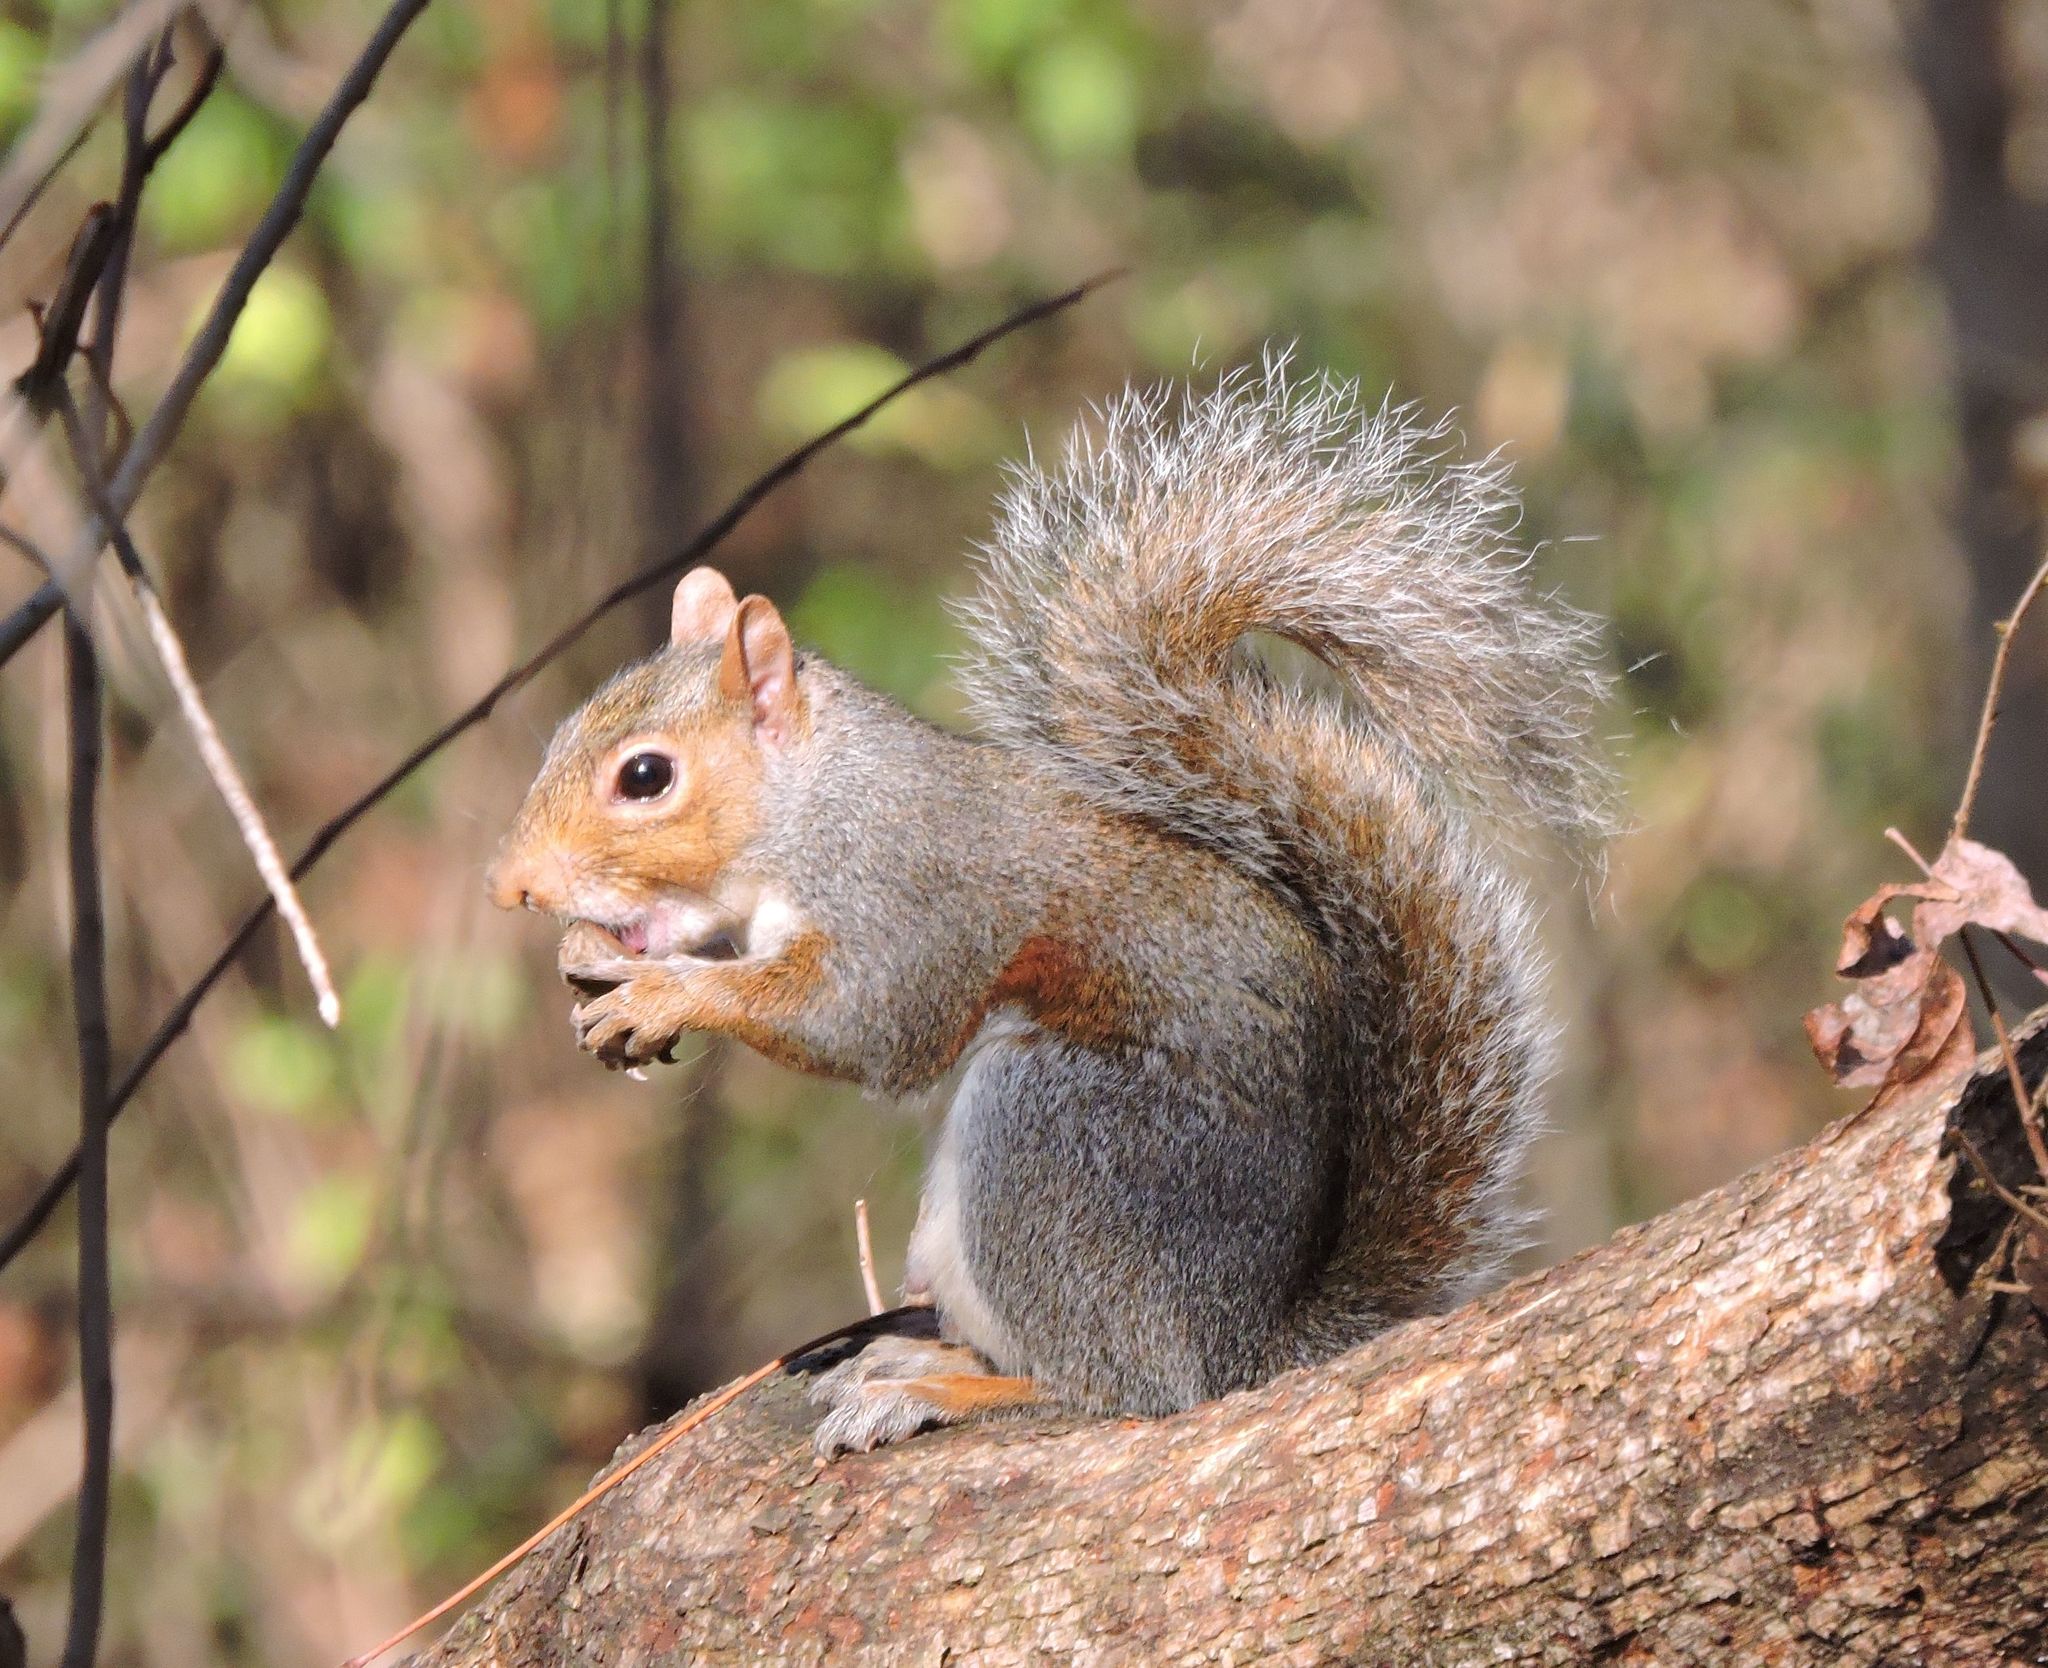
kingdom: Animalia
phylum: Chordata
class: Mammalia
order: Rodentia
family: Sciuridae
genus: Sciurus
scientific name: Sciurus carolinensis
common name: Eastern gray squirrel
